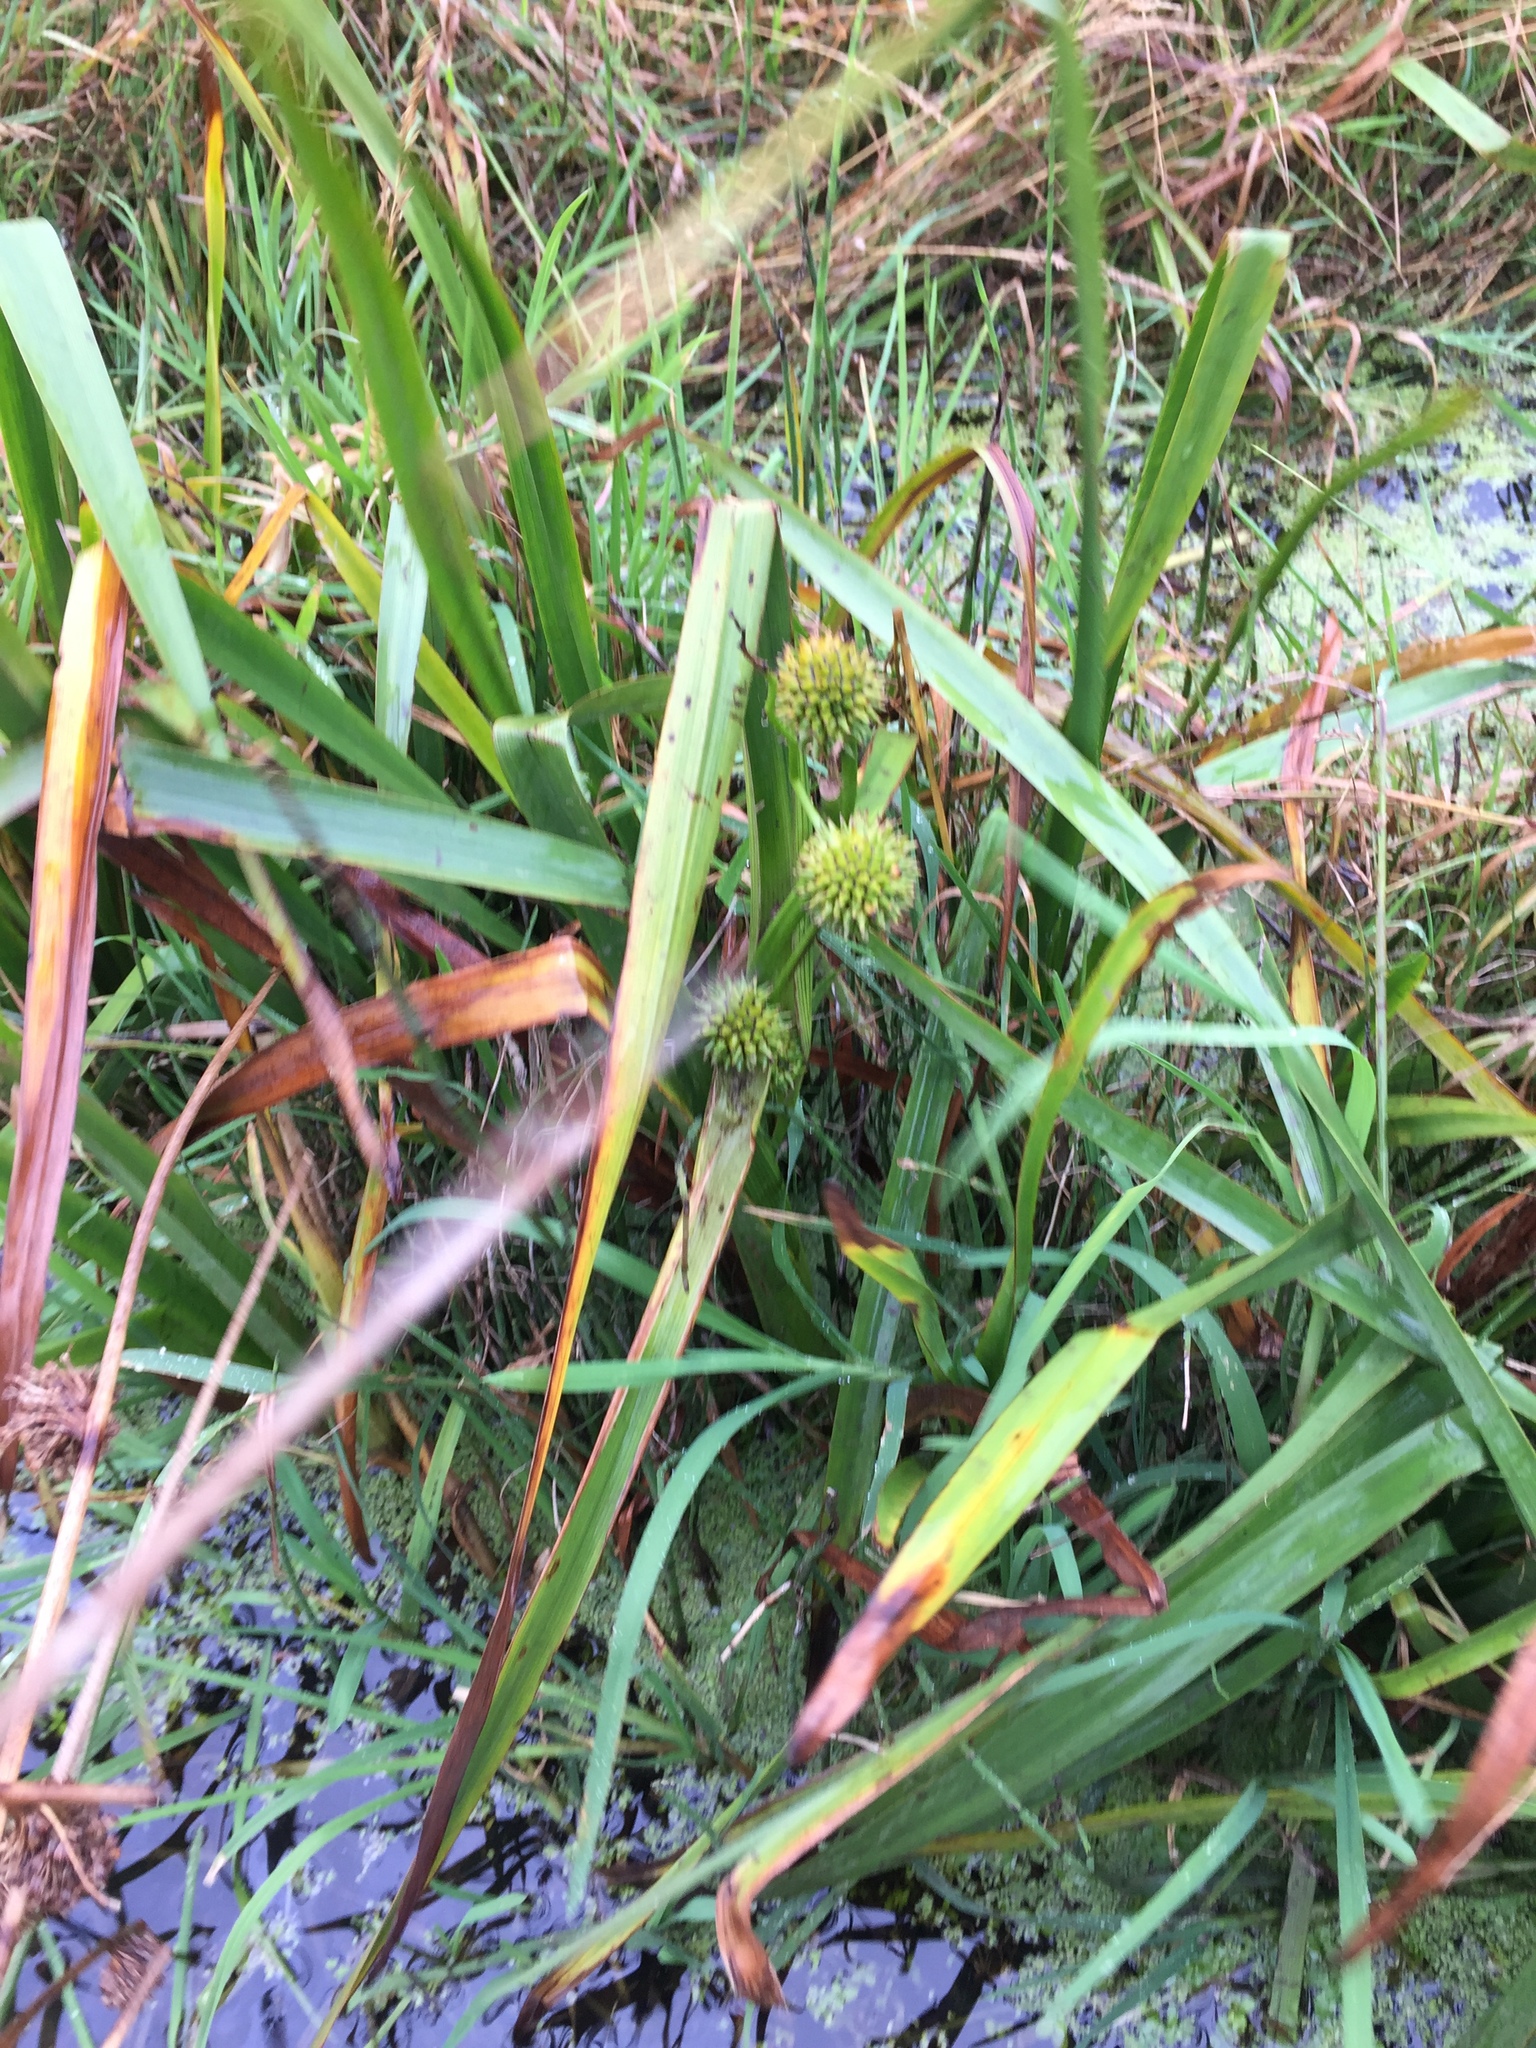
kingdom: Plantae
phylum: Tracheophyta
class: Liliopsida
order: Poales
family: Typhaceae
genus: Sparganium
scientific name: Sparganium erectum
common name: Branched bur-reed
